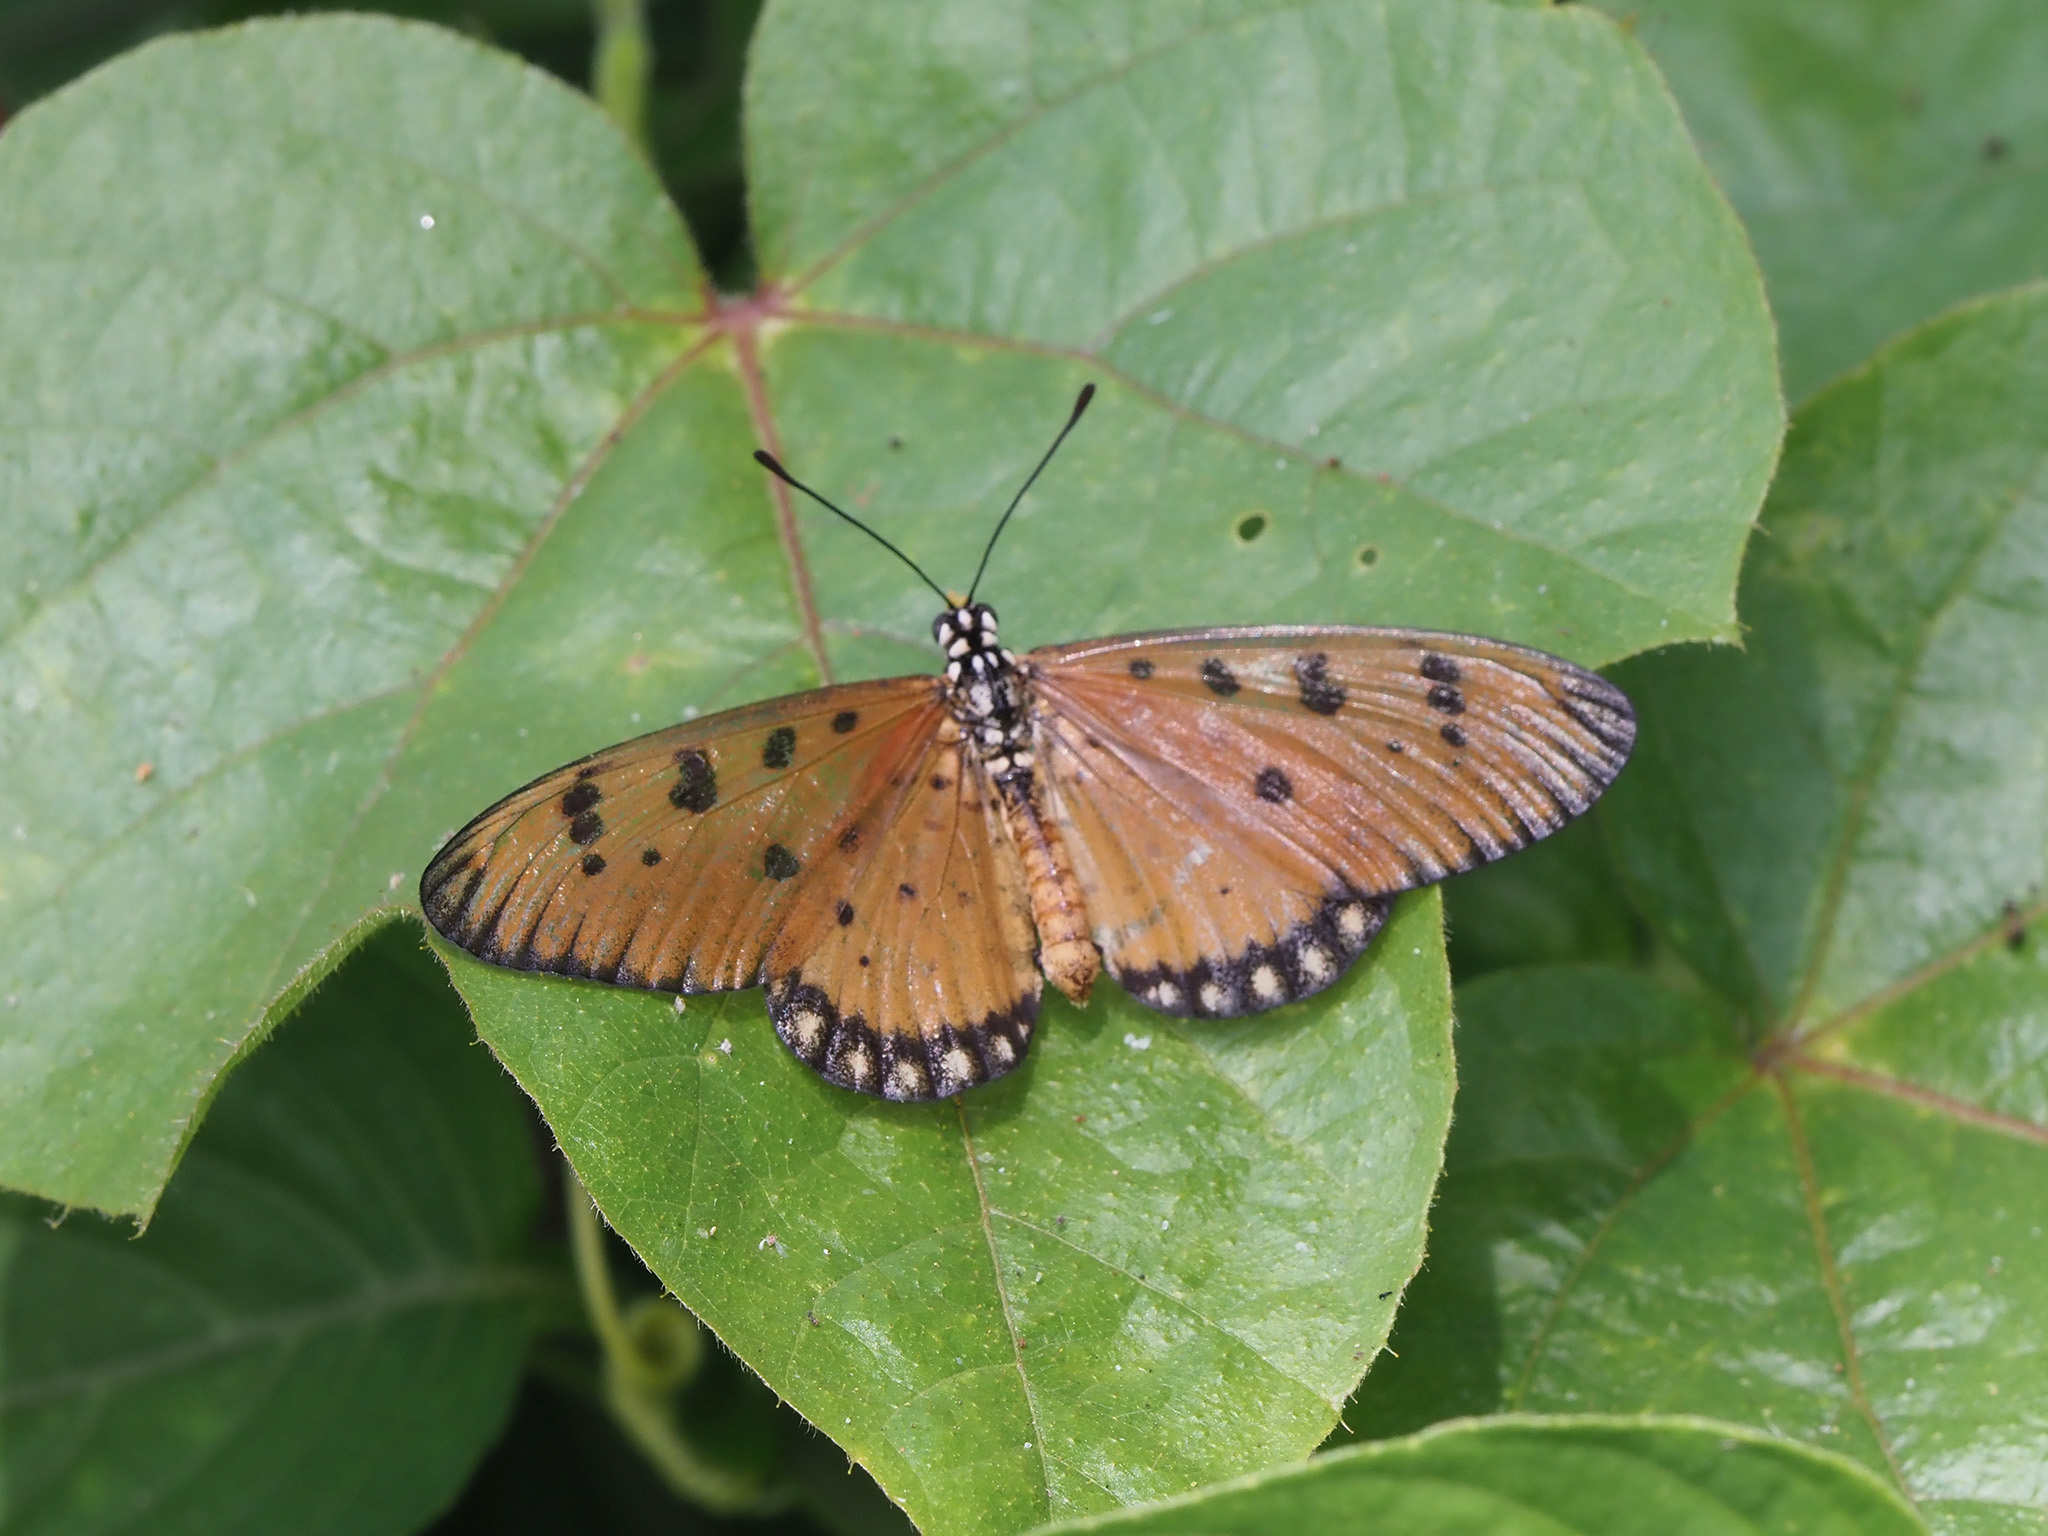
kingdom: Animalia
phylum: Arthropoda
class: Insecta
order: Lepidoptera
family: Nymphalidae
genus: Acraea
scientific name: Acraea terpsicore
